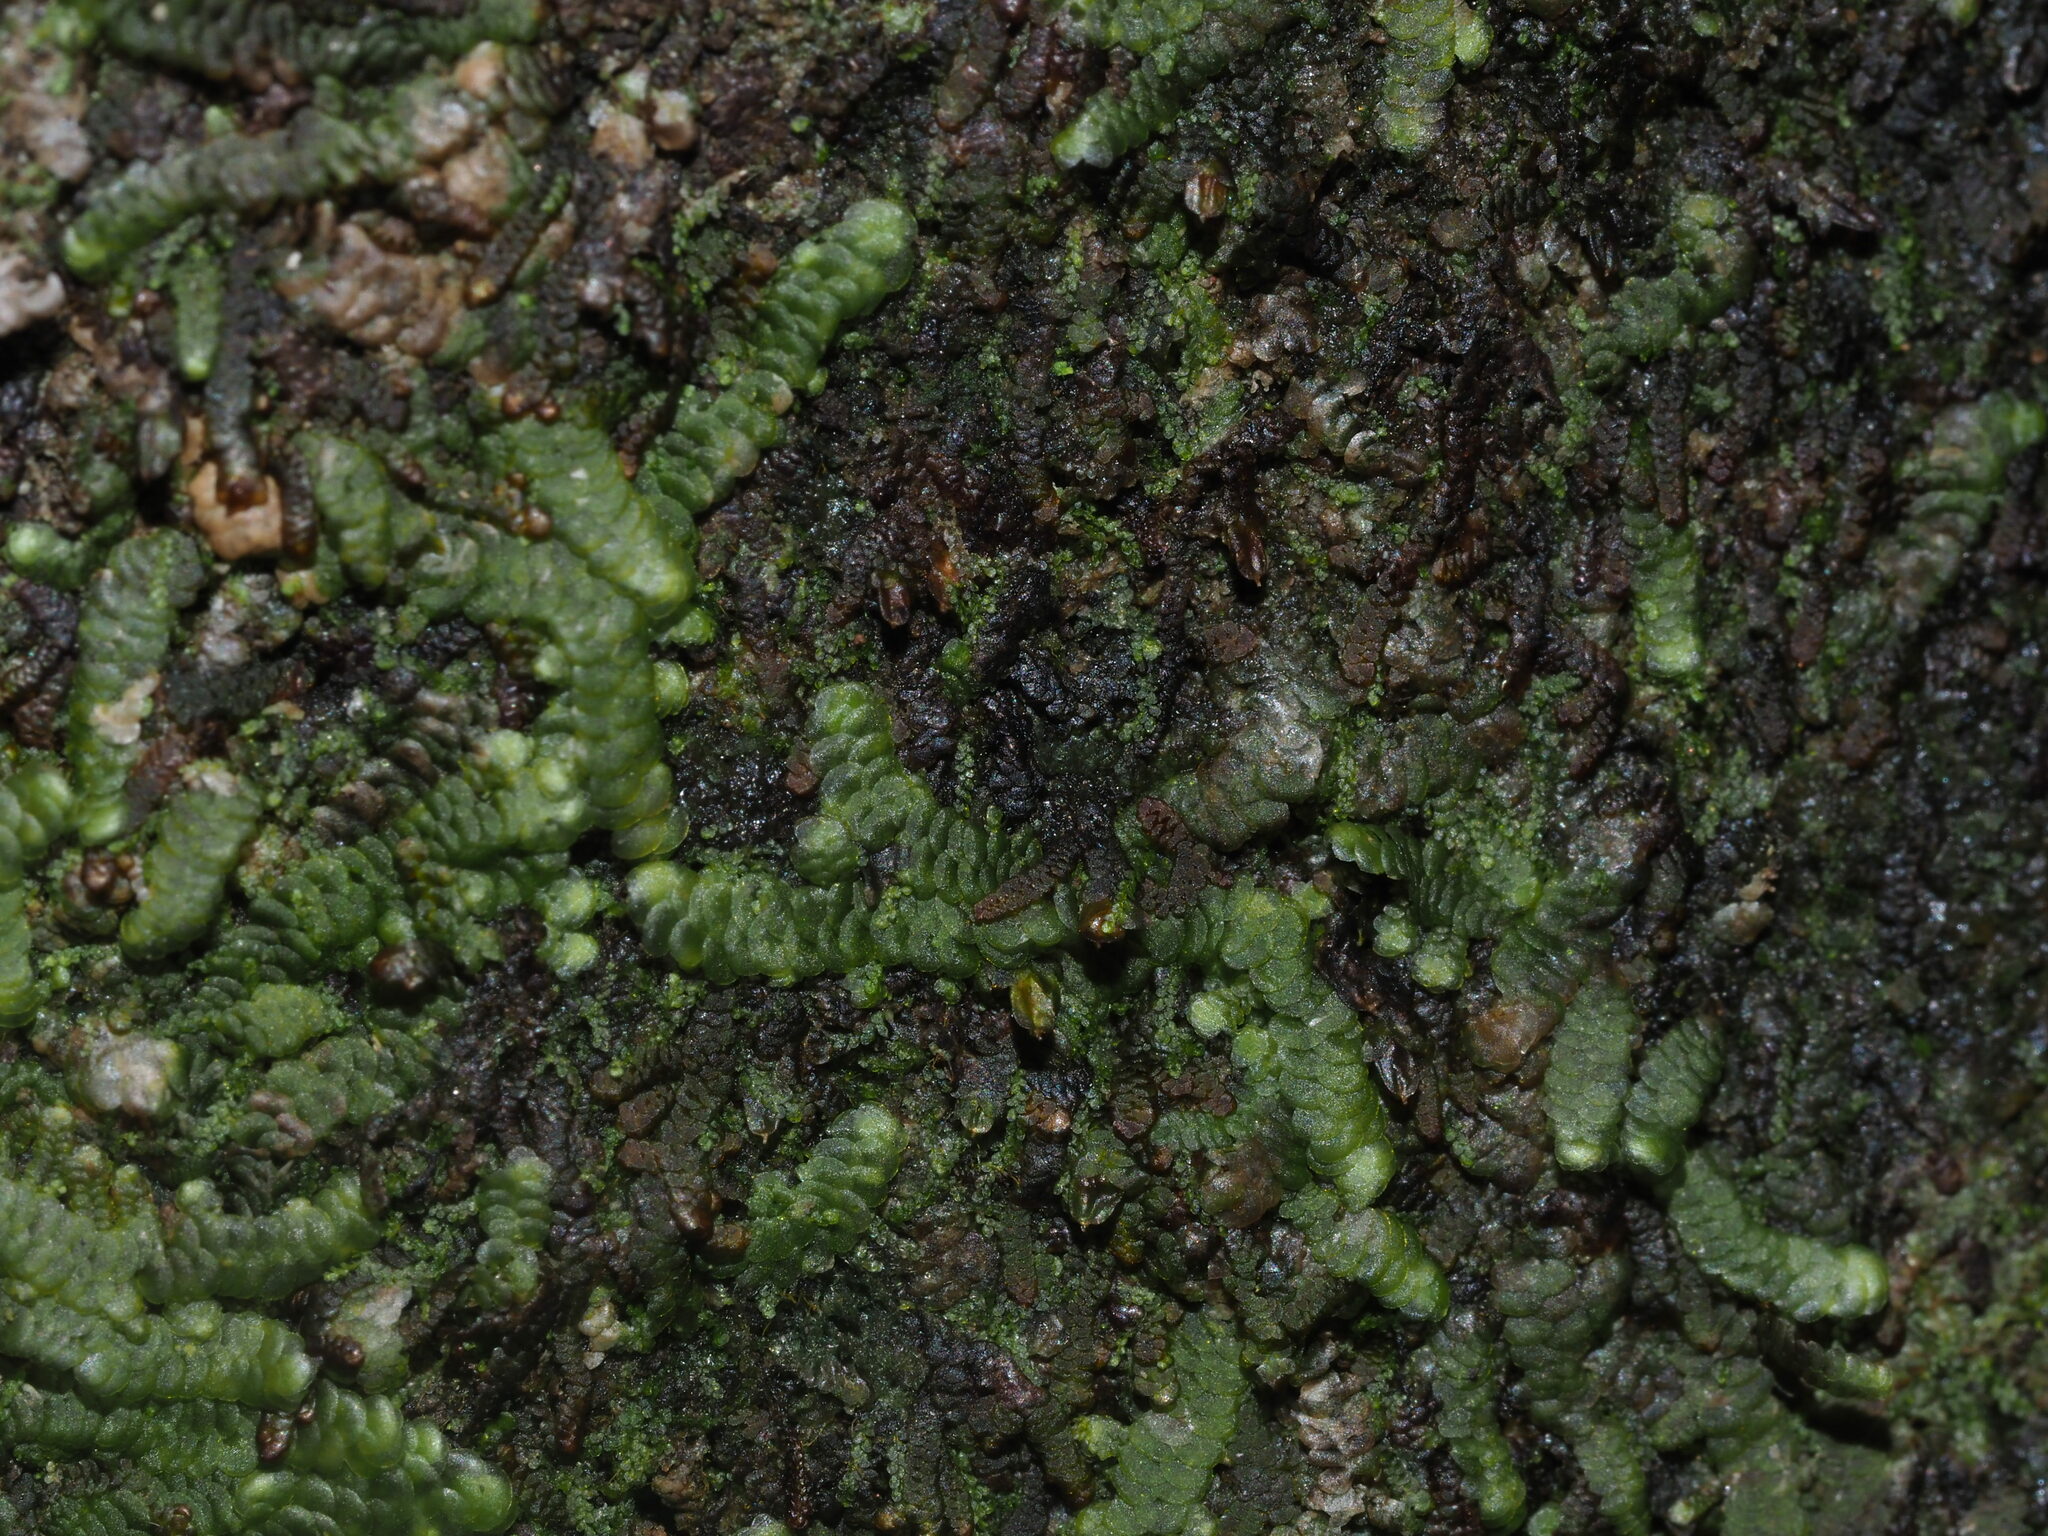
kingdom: Plantae
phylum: Marchantiophyta
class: Jungermanniopsida
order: Porellales
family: Frullaniaceae
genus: Frullania
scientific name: Frullania hypoleuca
